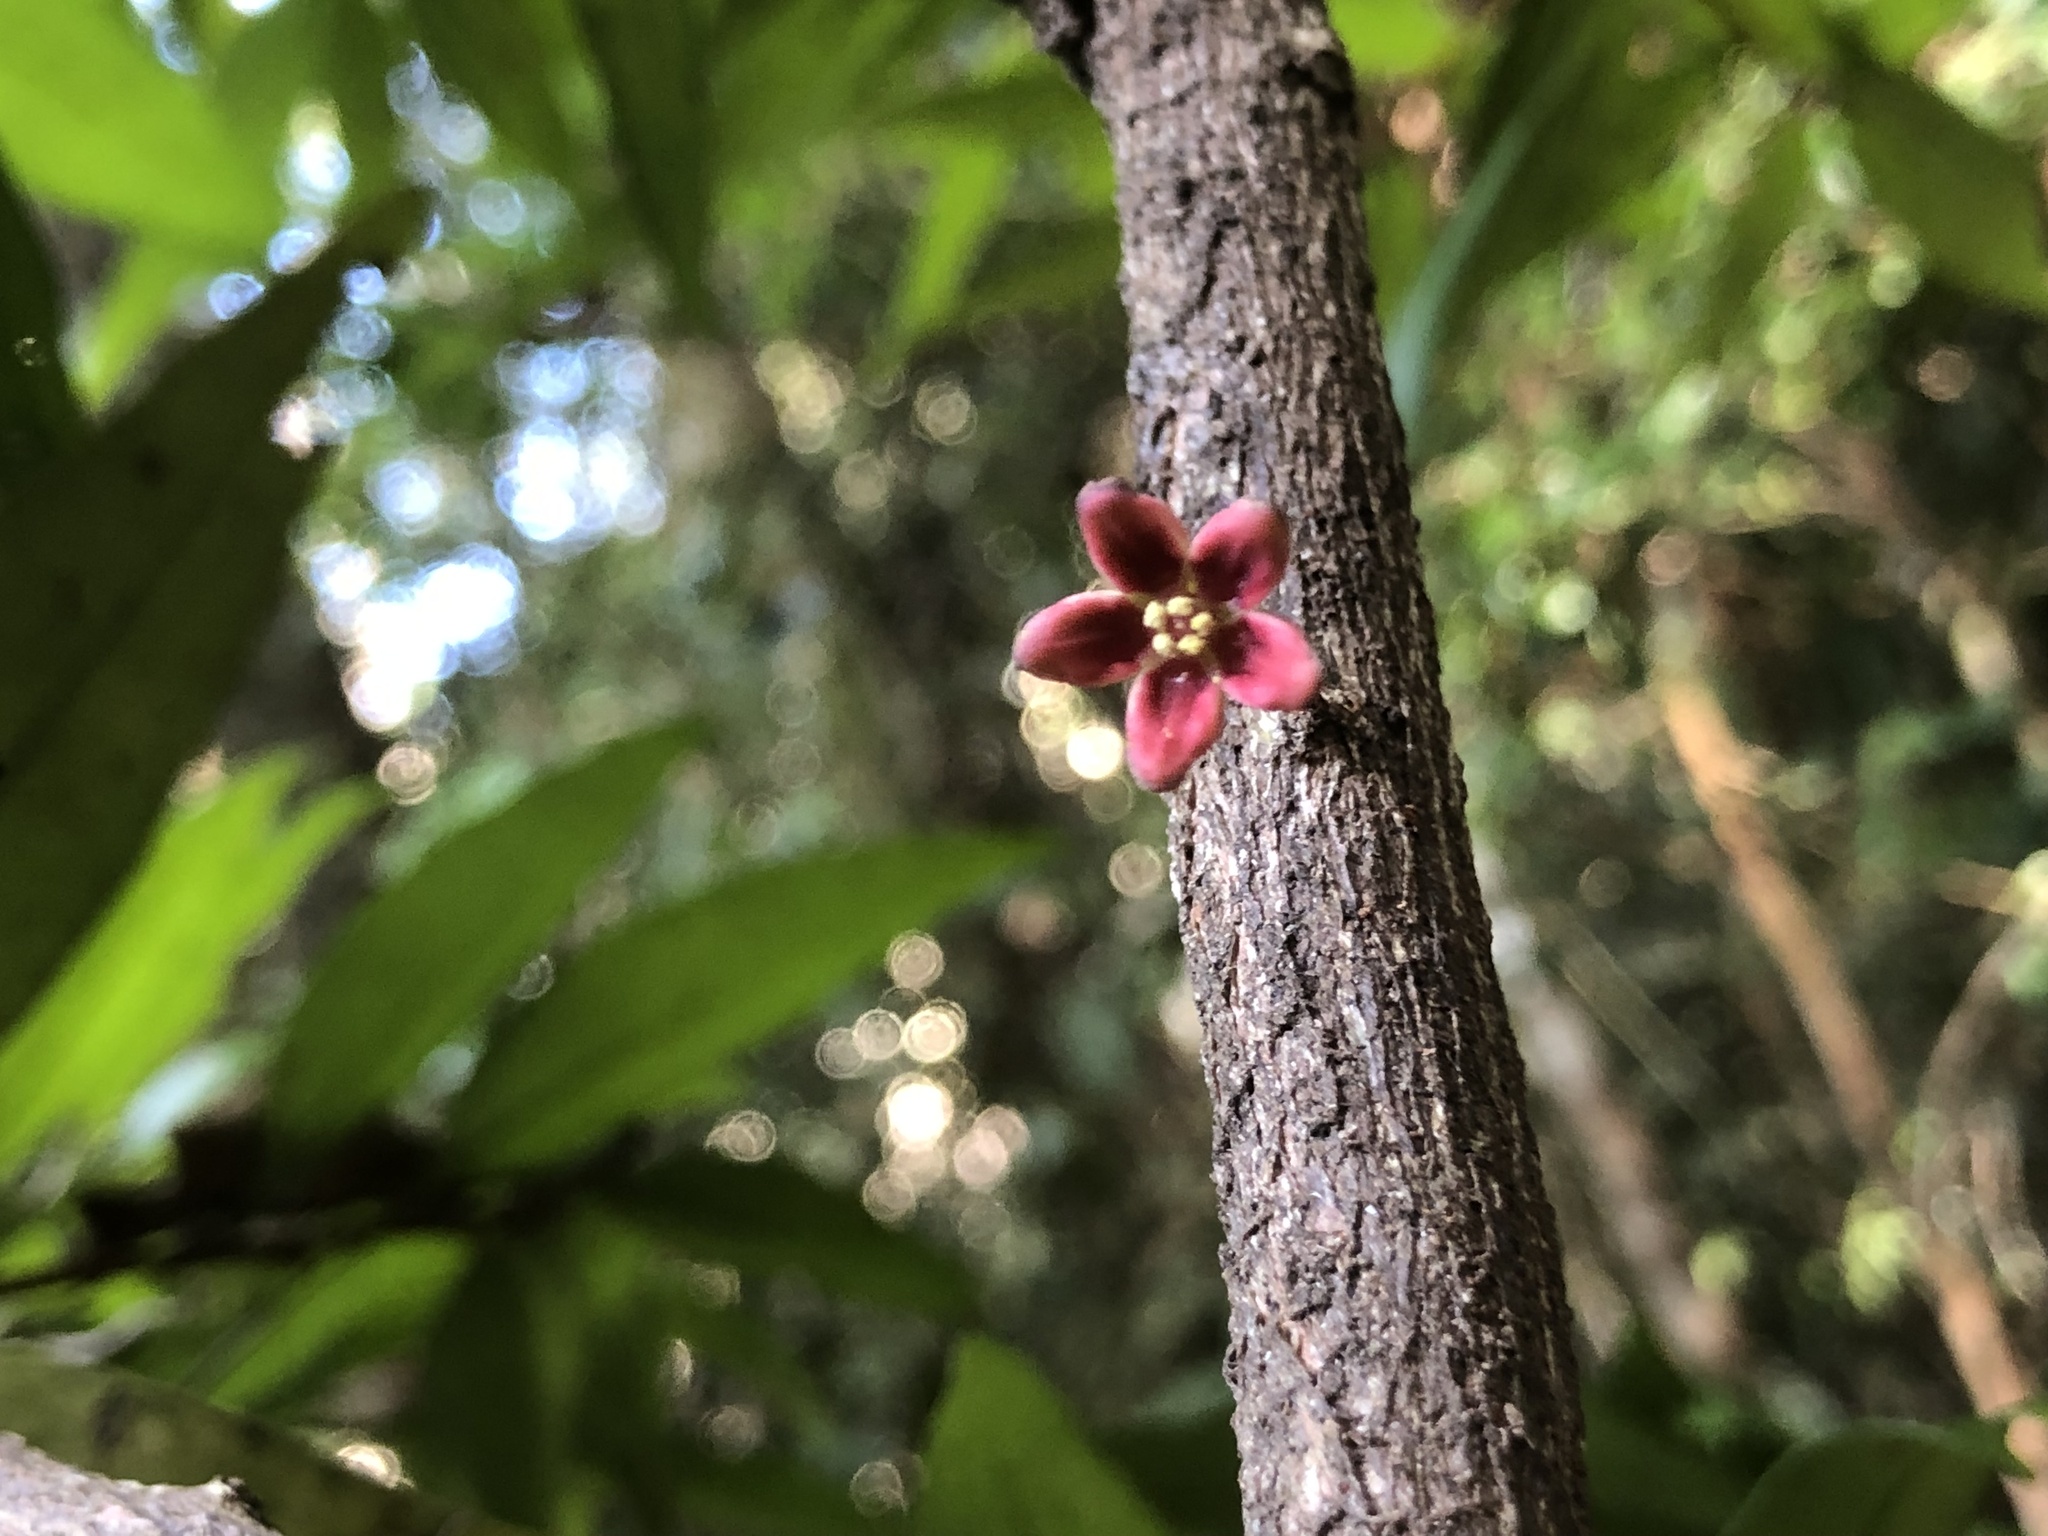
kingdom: Plantae
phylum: Tracheophyta
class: Magnoliopsida
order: Celastrales
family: Celastraceae
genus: Hedraianthera
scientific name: Hedraianthera porphyropetala
